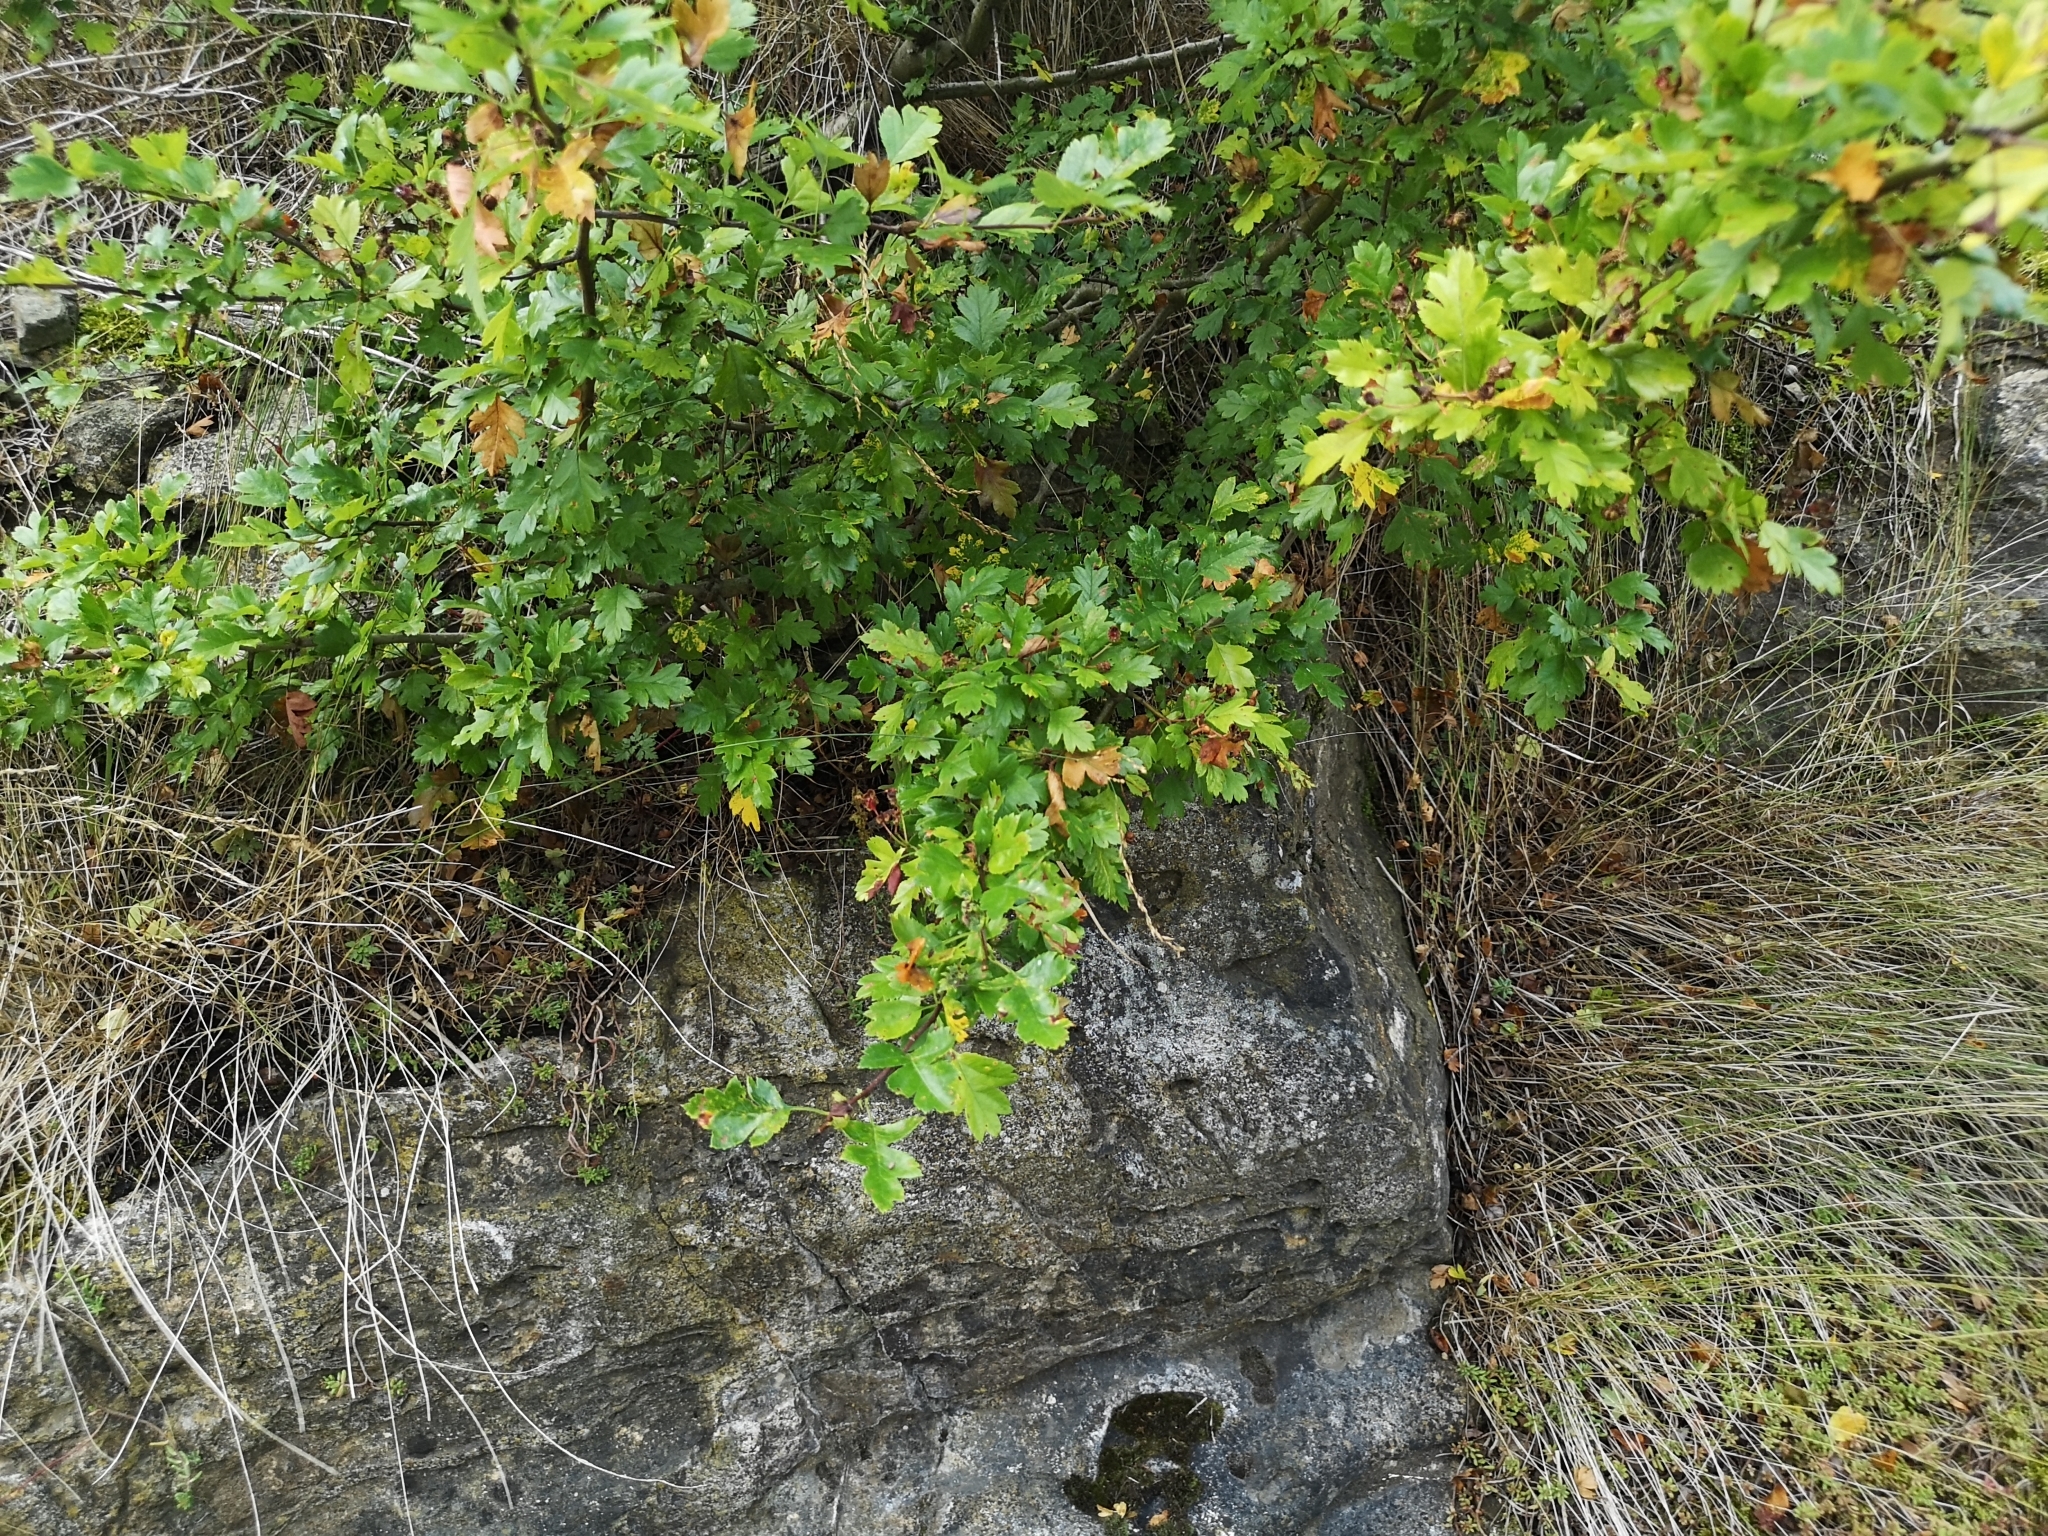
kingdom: Plantae
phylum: Tracheophyta
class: Magnoliopsida
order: Rosales
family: Rosaceae
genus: Crataegus
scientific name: Crataegus monogyna
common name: Hawthorn
